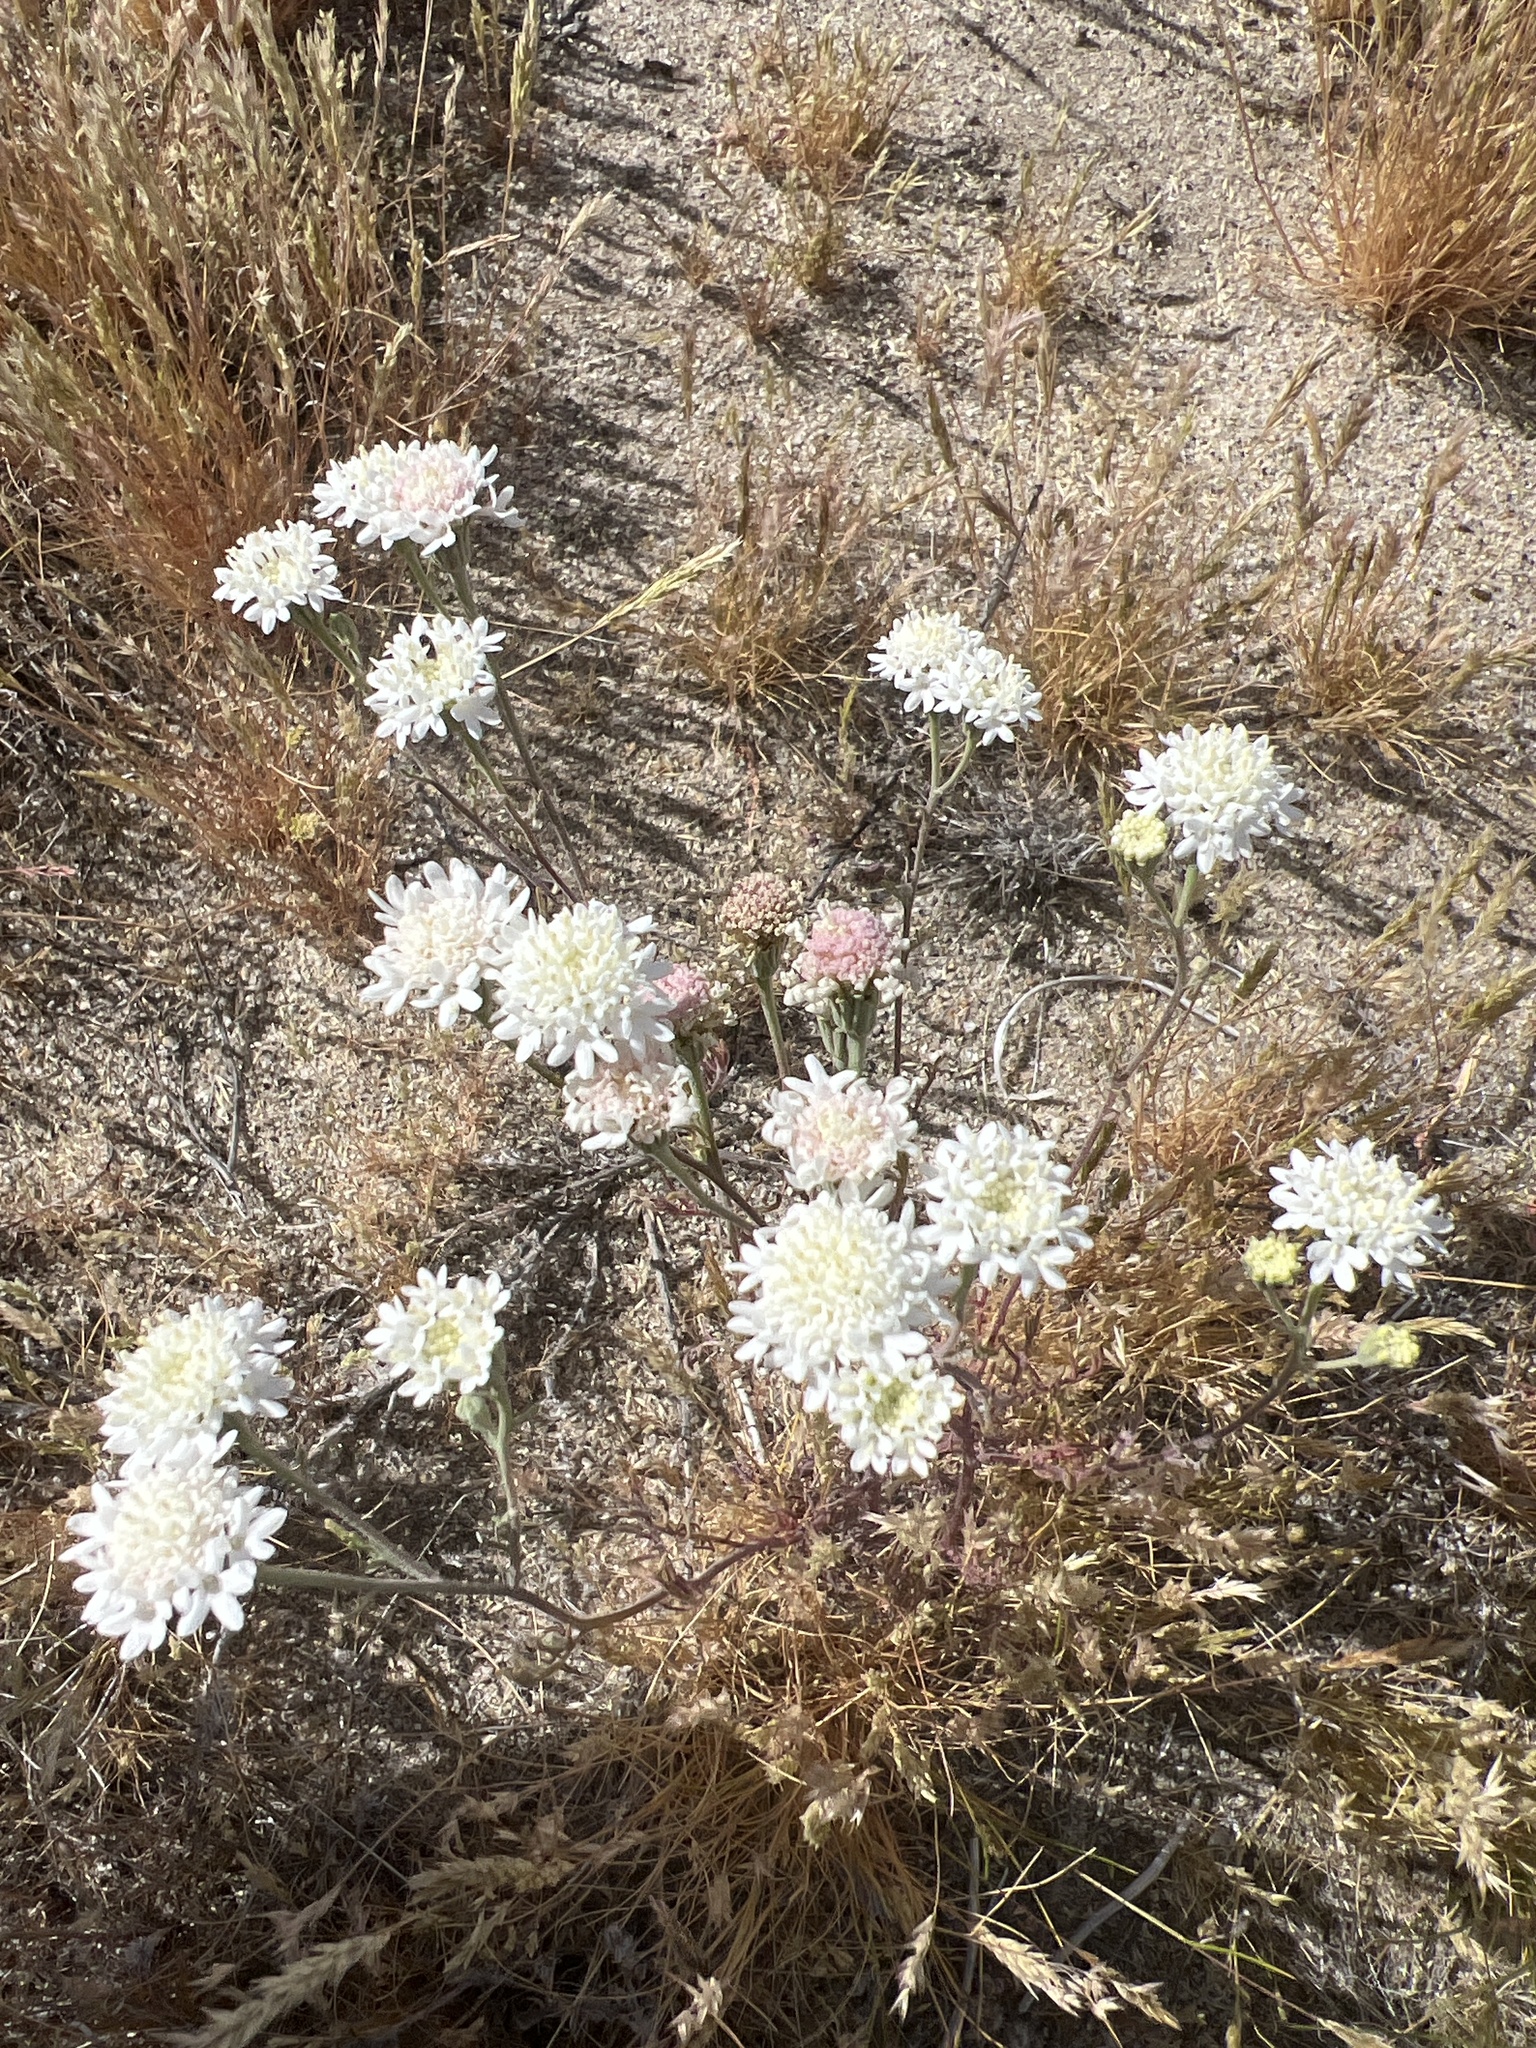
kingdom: Plantae
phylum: Tracheophyta
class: Magnoliopsida
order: Asterales
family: Asteraceae
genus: Chaenactis
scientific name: Chaenactis stevioides
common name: Desert pincushion
